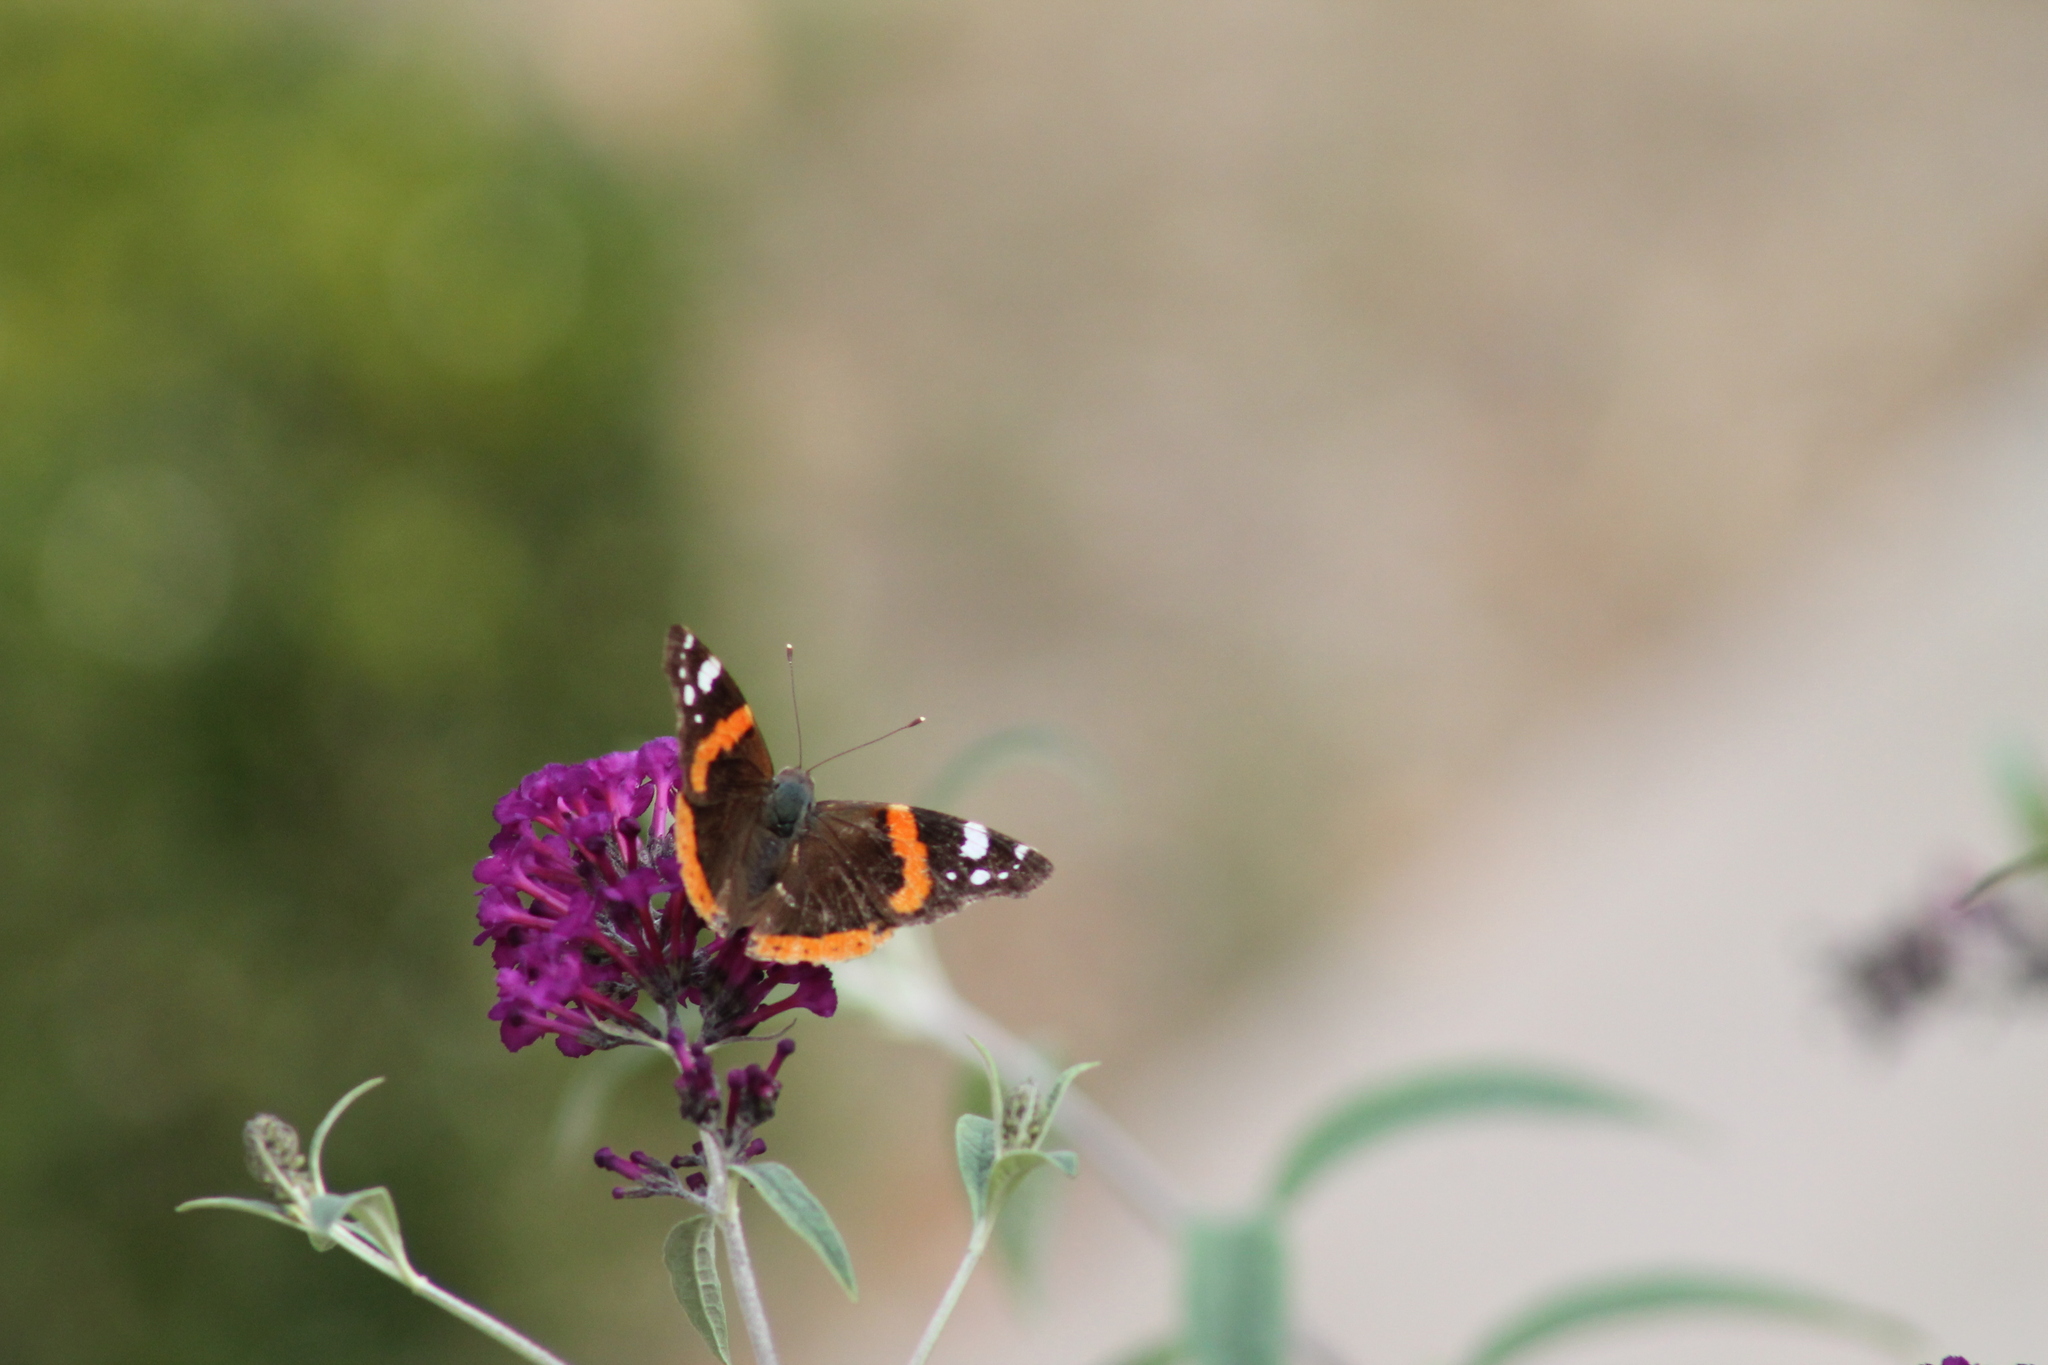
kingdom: Animalia
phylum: Arthropoda
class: Insecta
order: Lepidoptera
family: Nymphalidae
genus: Vanessa
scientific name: Vanessa atalanta
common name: Red admiral
